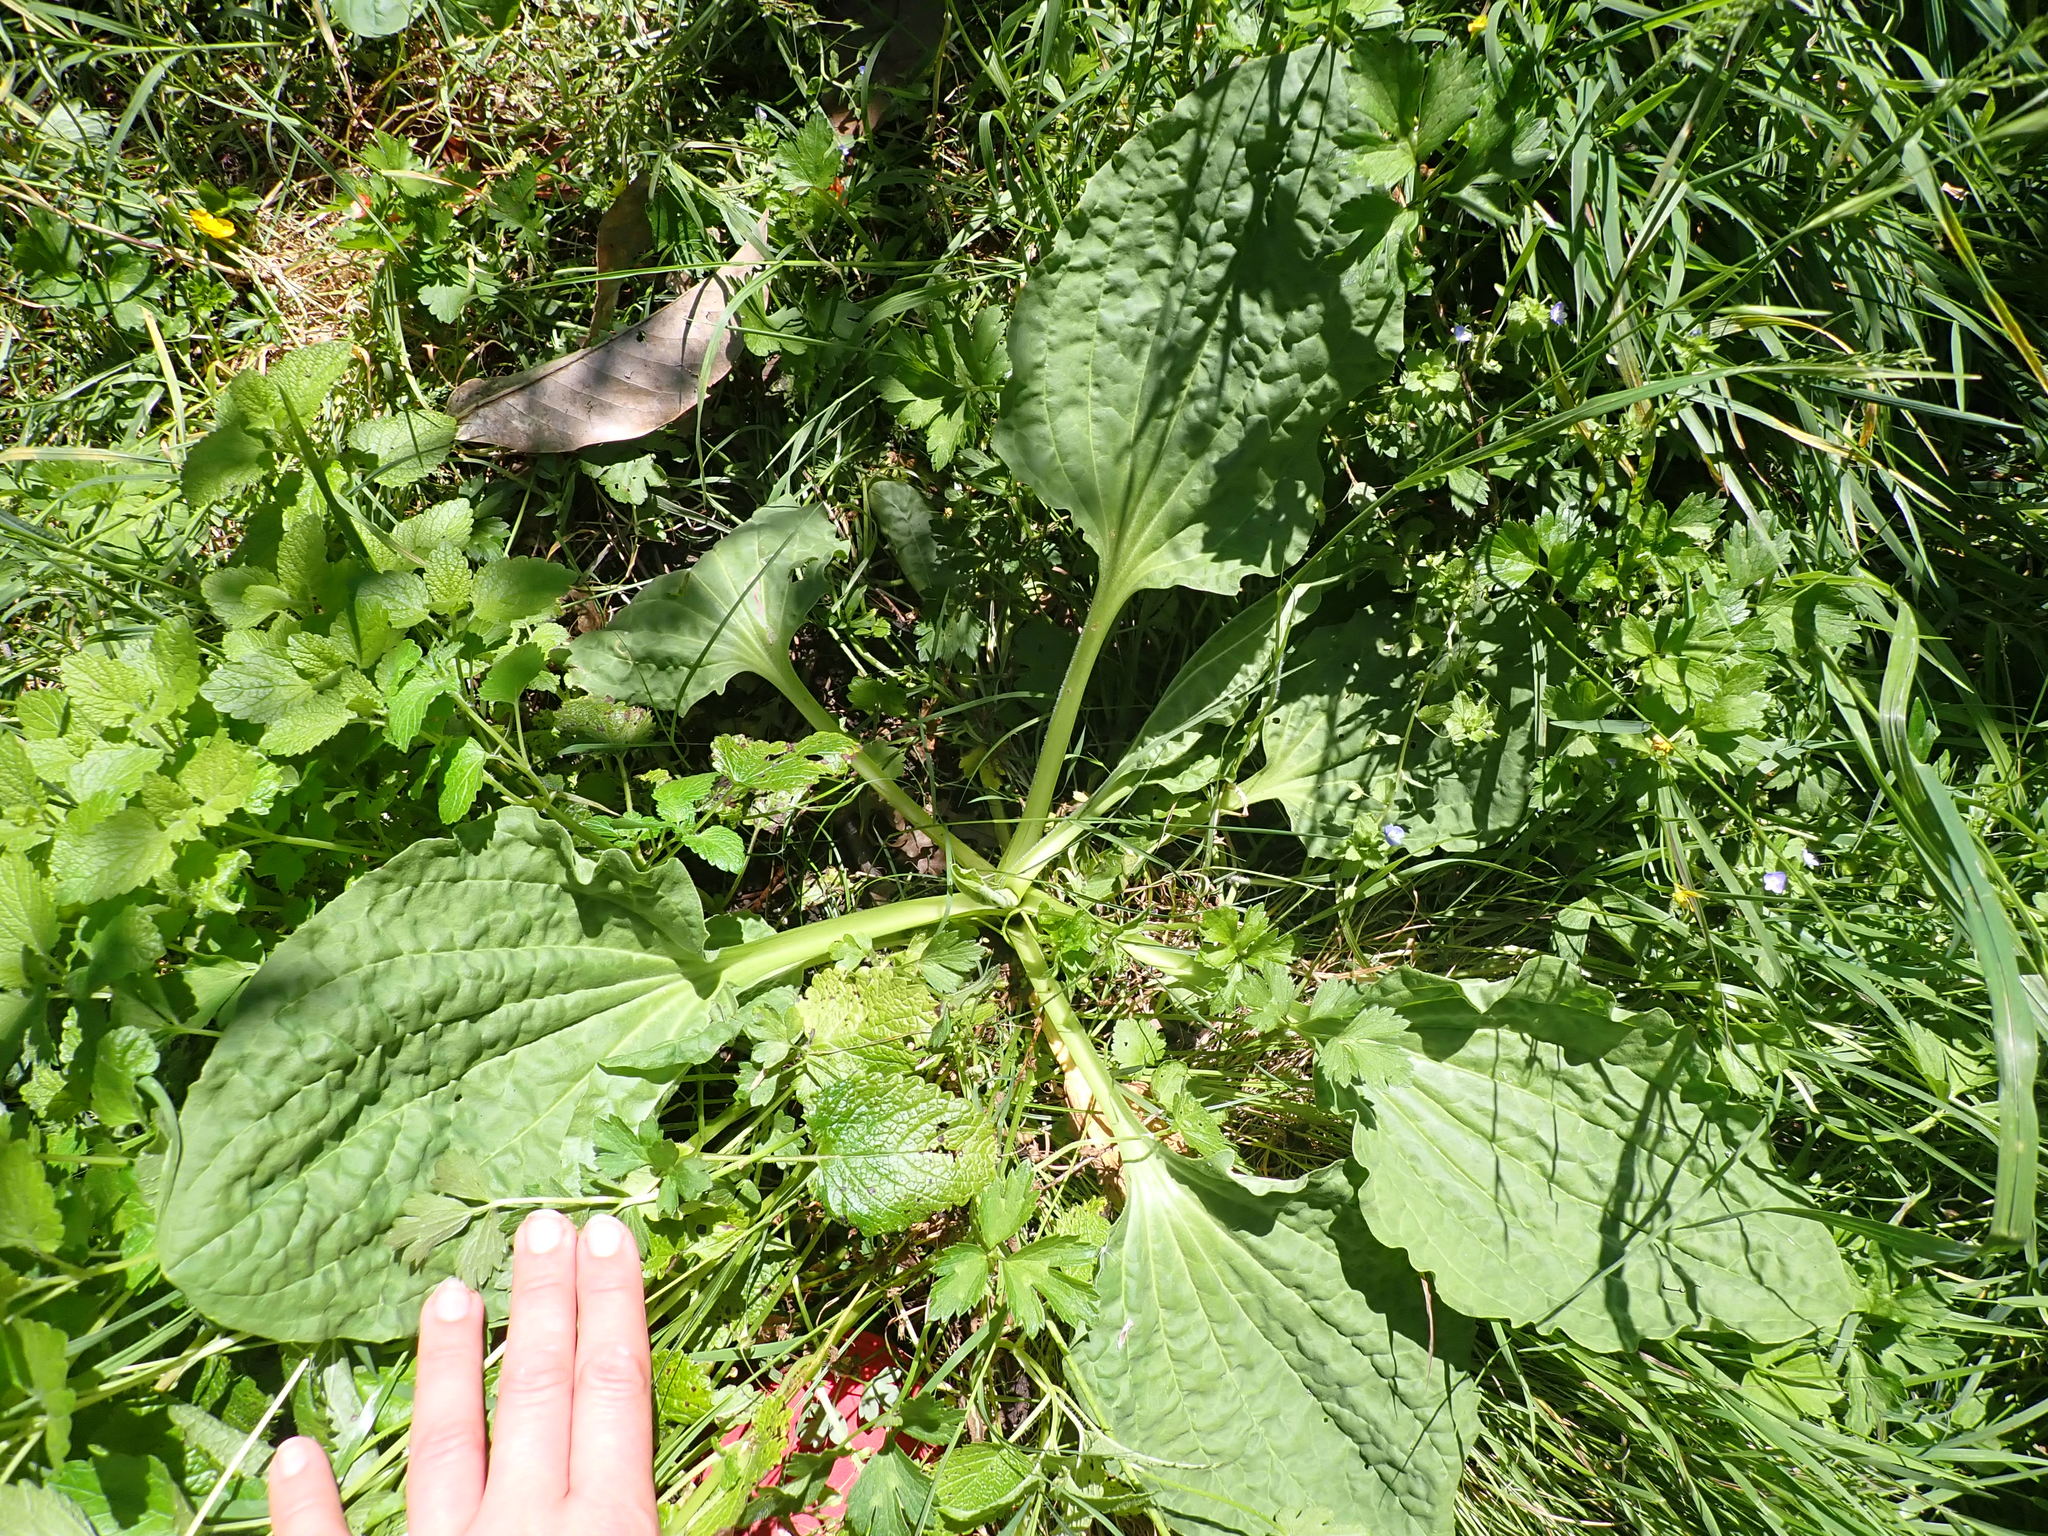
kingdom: Plantae
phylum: Tracheophyta
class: Magnoliopsida
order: Lamiales
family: Plantaginaceae
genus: Plantago
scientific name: Plantago major
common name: Common plantain
